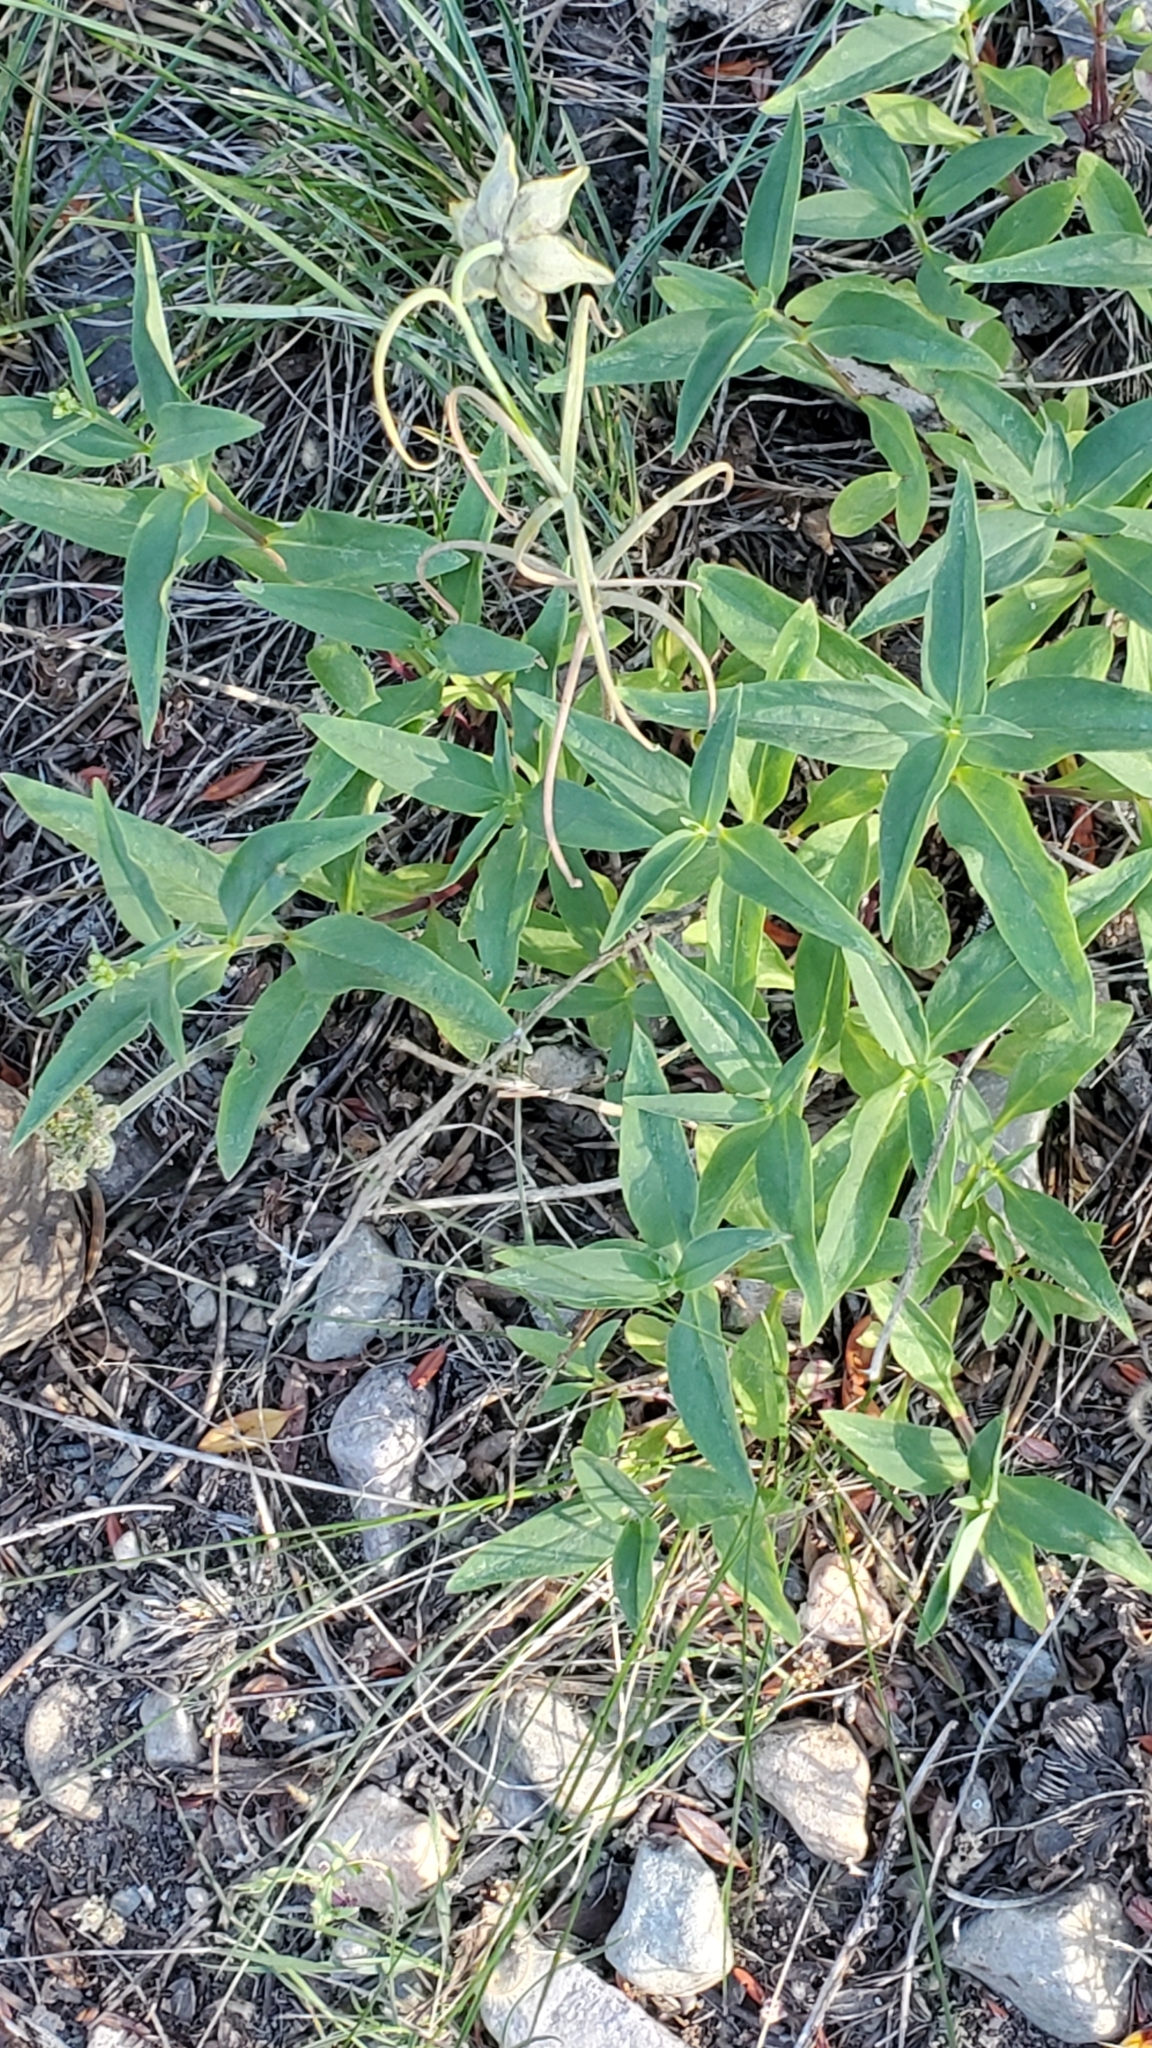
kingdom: Plantae
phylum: Tracheophyta
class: Liliopsida
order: Liliales
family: Liliaceae
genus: Fritillaria
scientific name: Fritillaria atropurpurea
